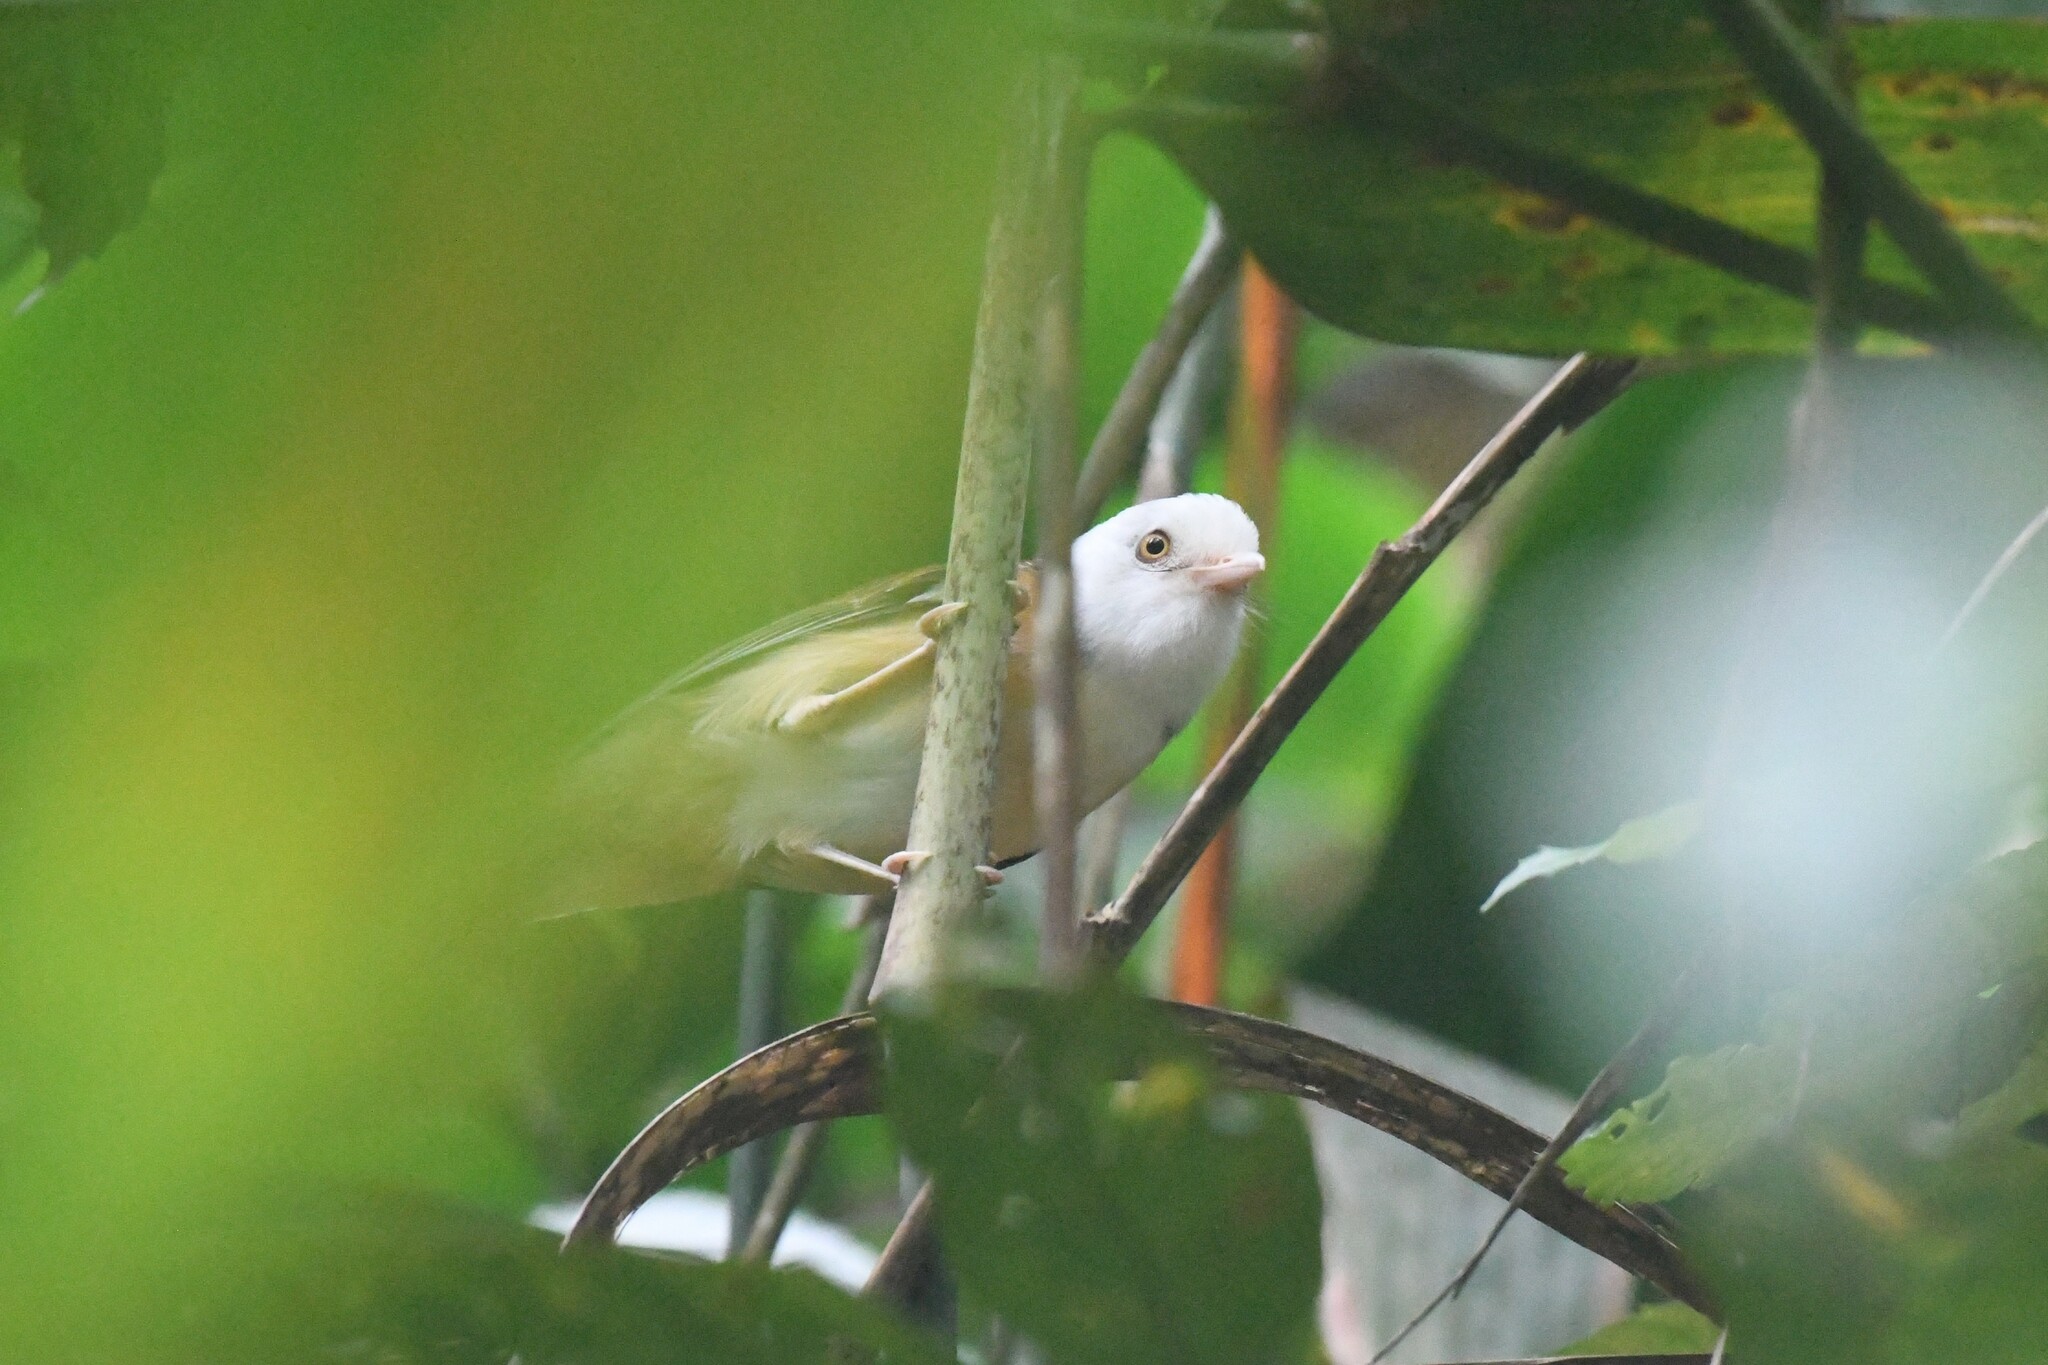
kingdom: Animalia
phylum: Chordata
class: Aves
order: Passeriformes
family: Pellorneidae
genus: Gampsorhynchus
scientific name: Gampsorhynchus torquatus
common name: Collared babbler
